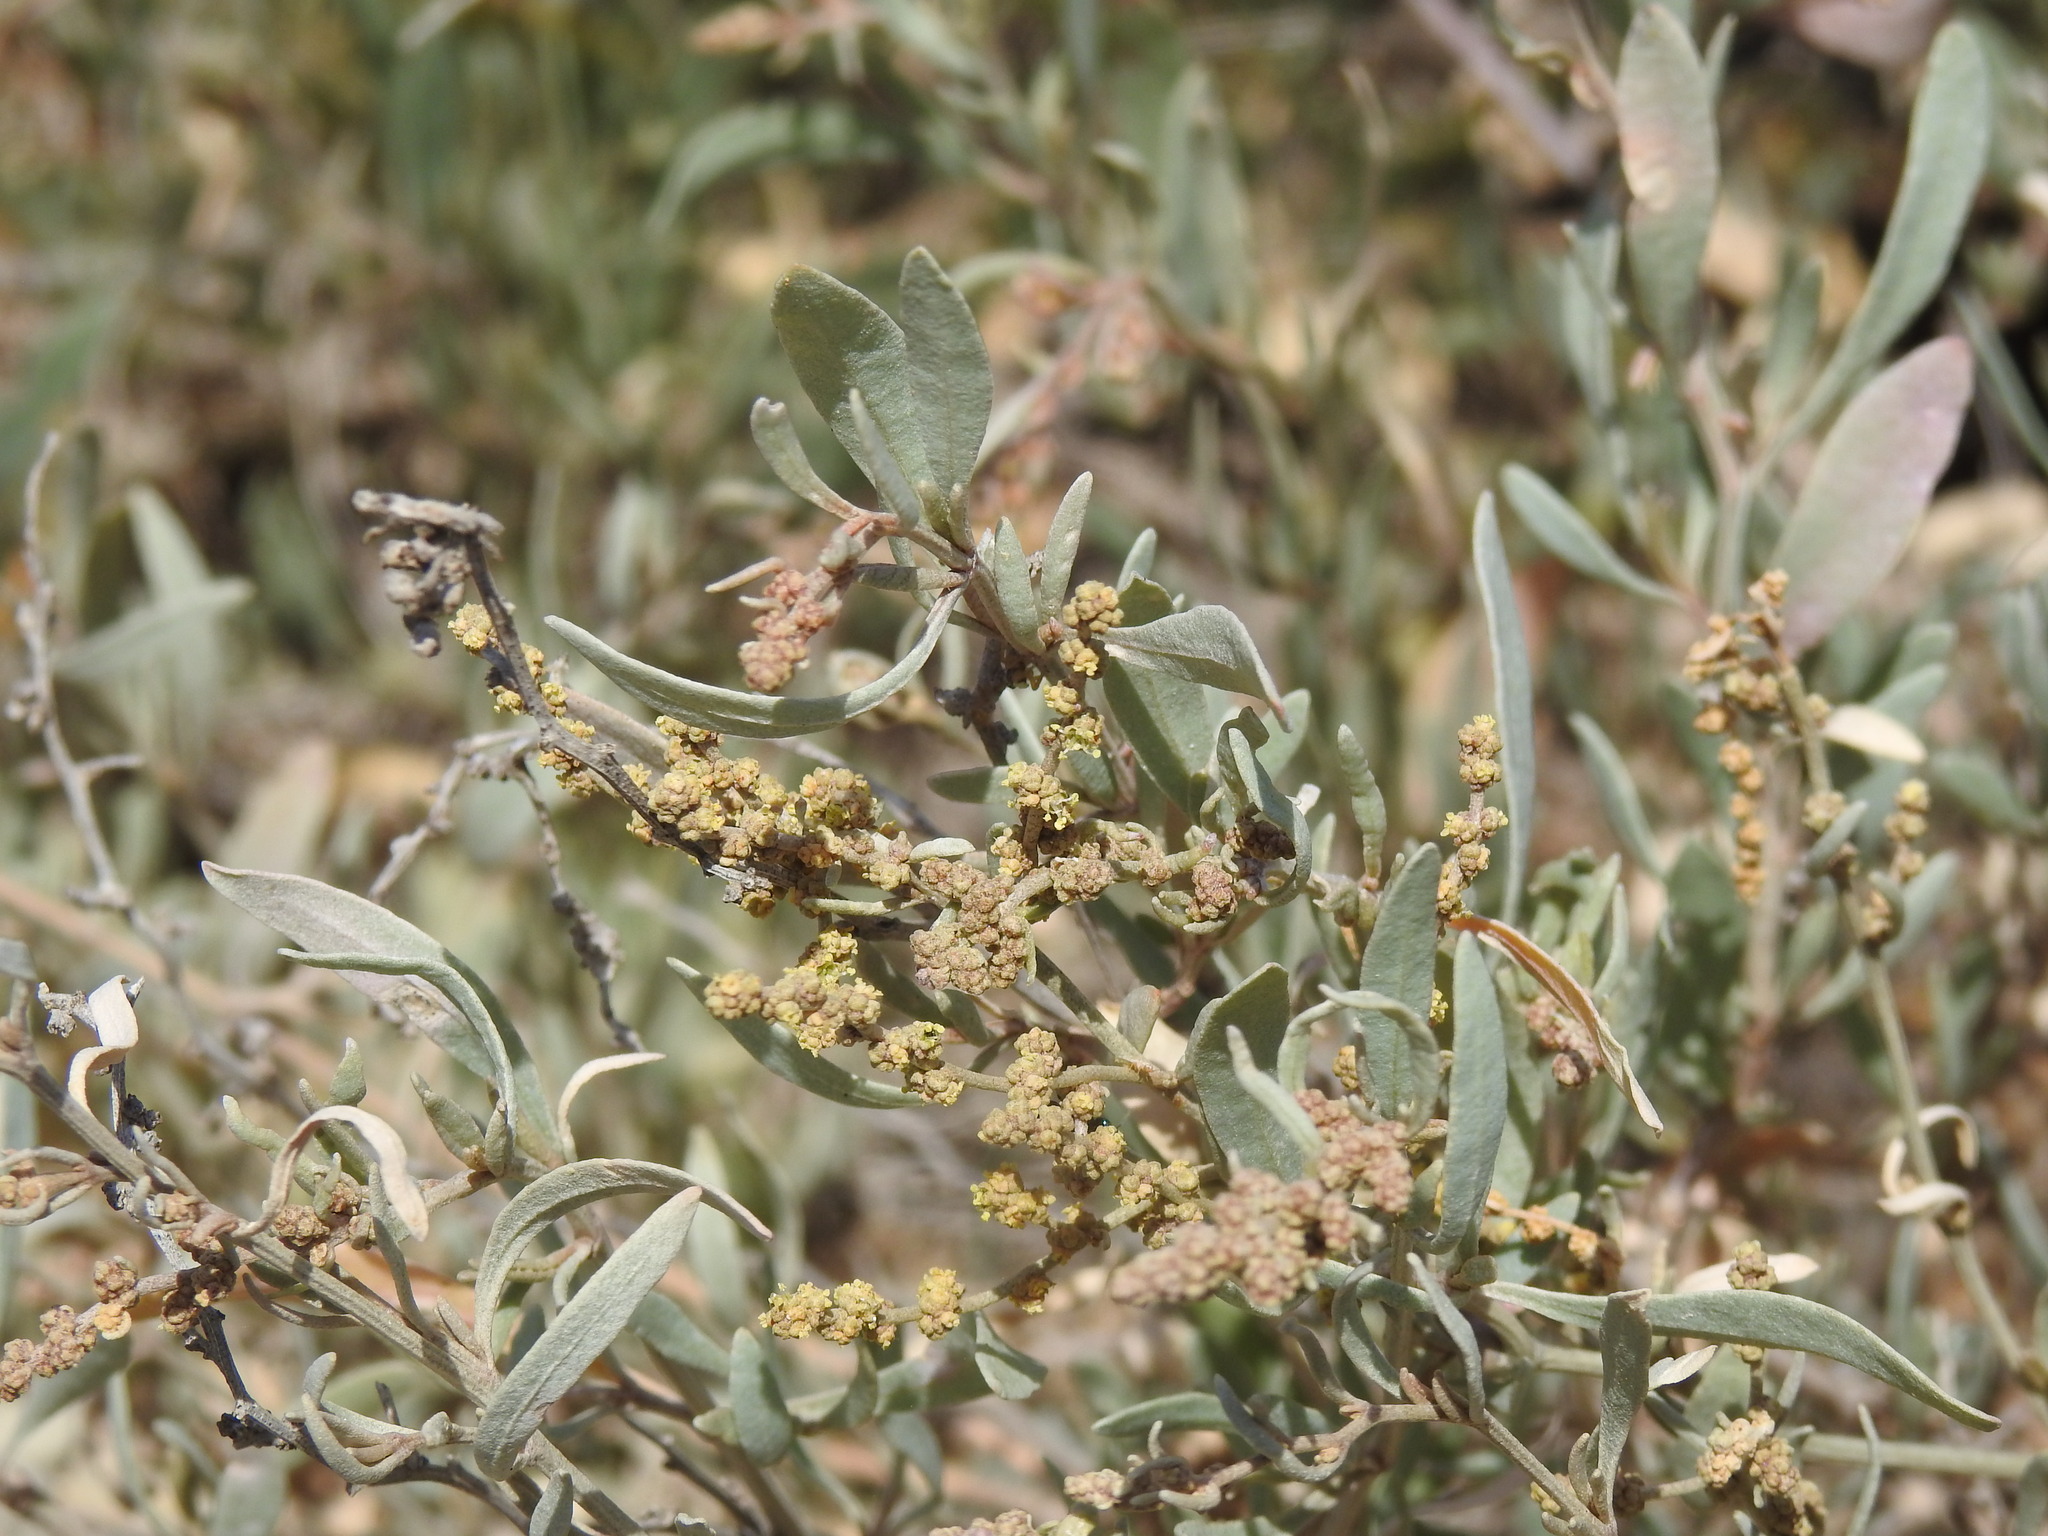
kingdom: Plantae
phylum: Tracheophyta
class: Magnoliopsida
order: Caryophyllales
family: Amaranthaceae
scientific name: Amaranthaceae
